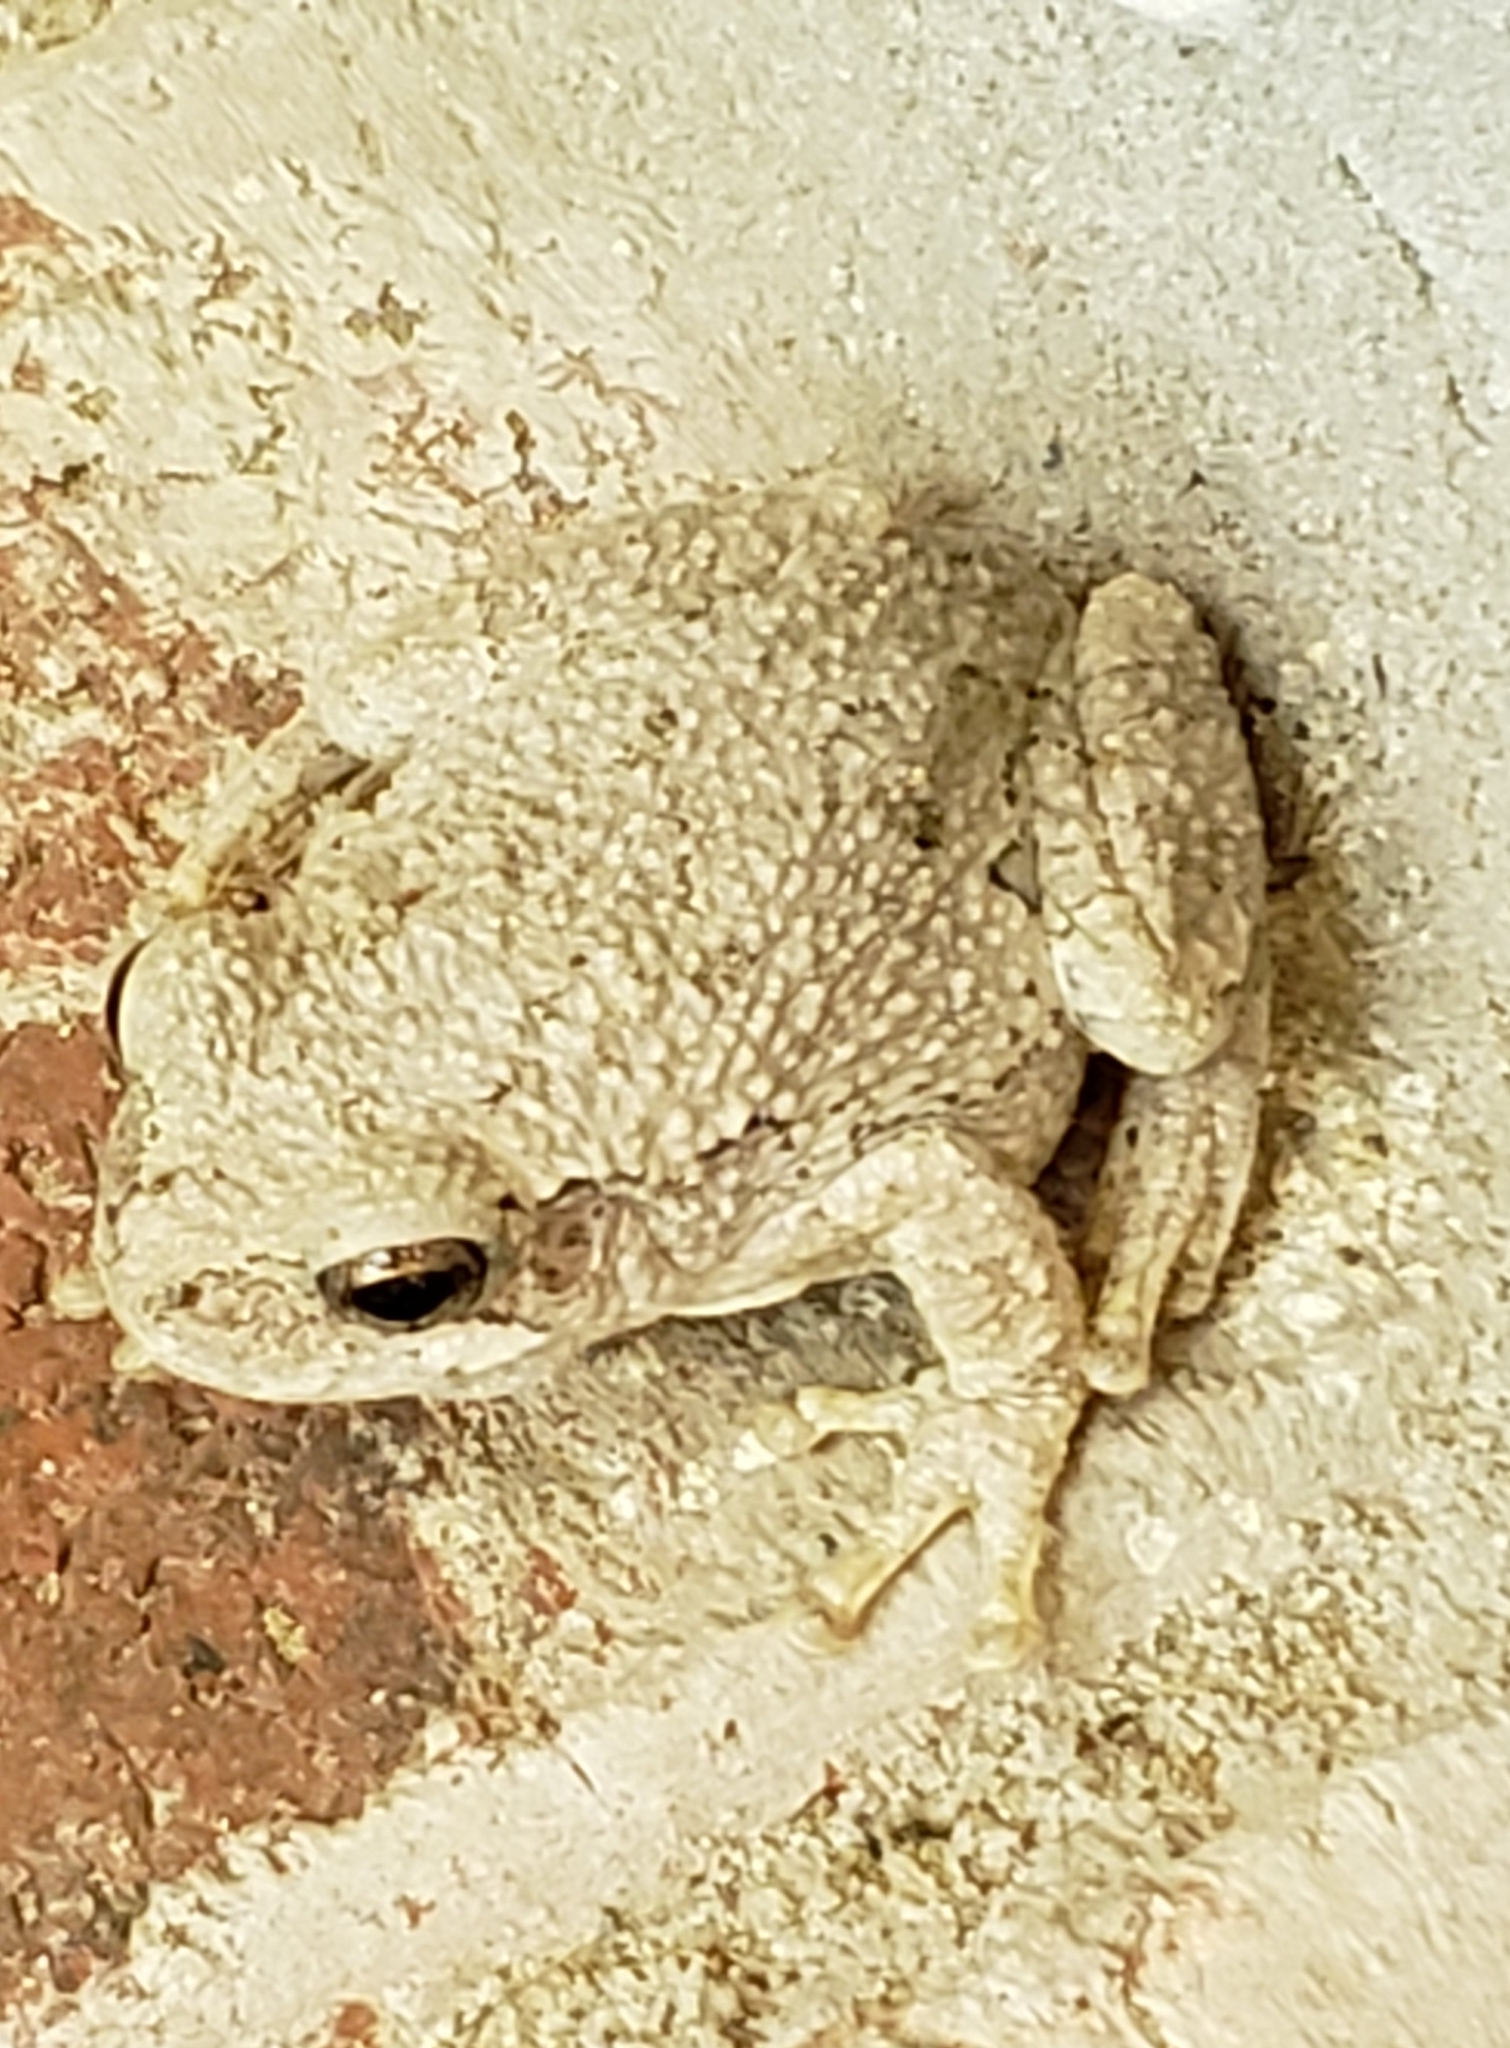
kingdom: Animalia
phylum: Chordata
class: Amphibia
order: Anura
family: Hylidae
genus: Dryophytes
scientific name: Dryophytes versicolor
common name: Gray treefrog
